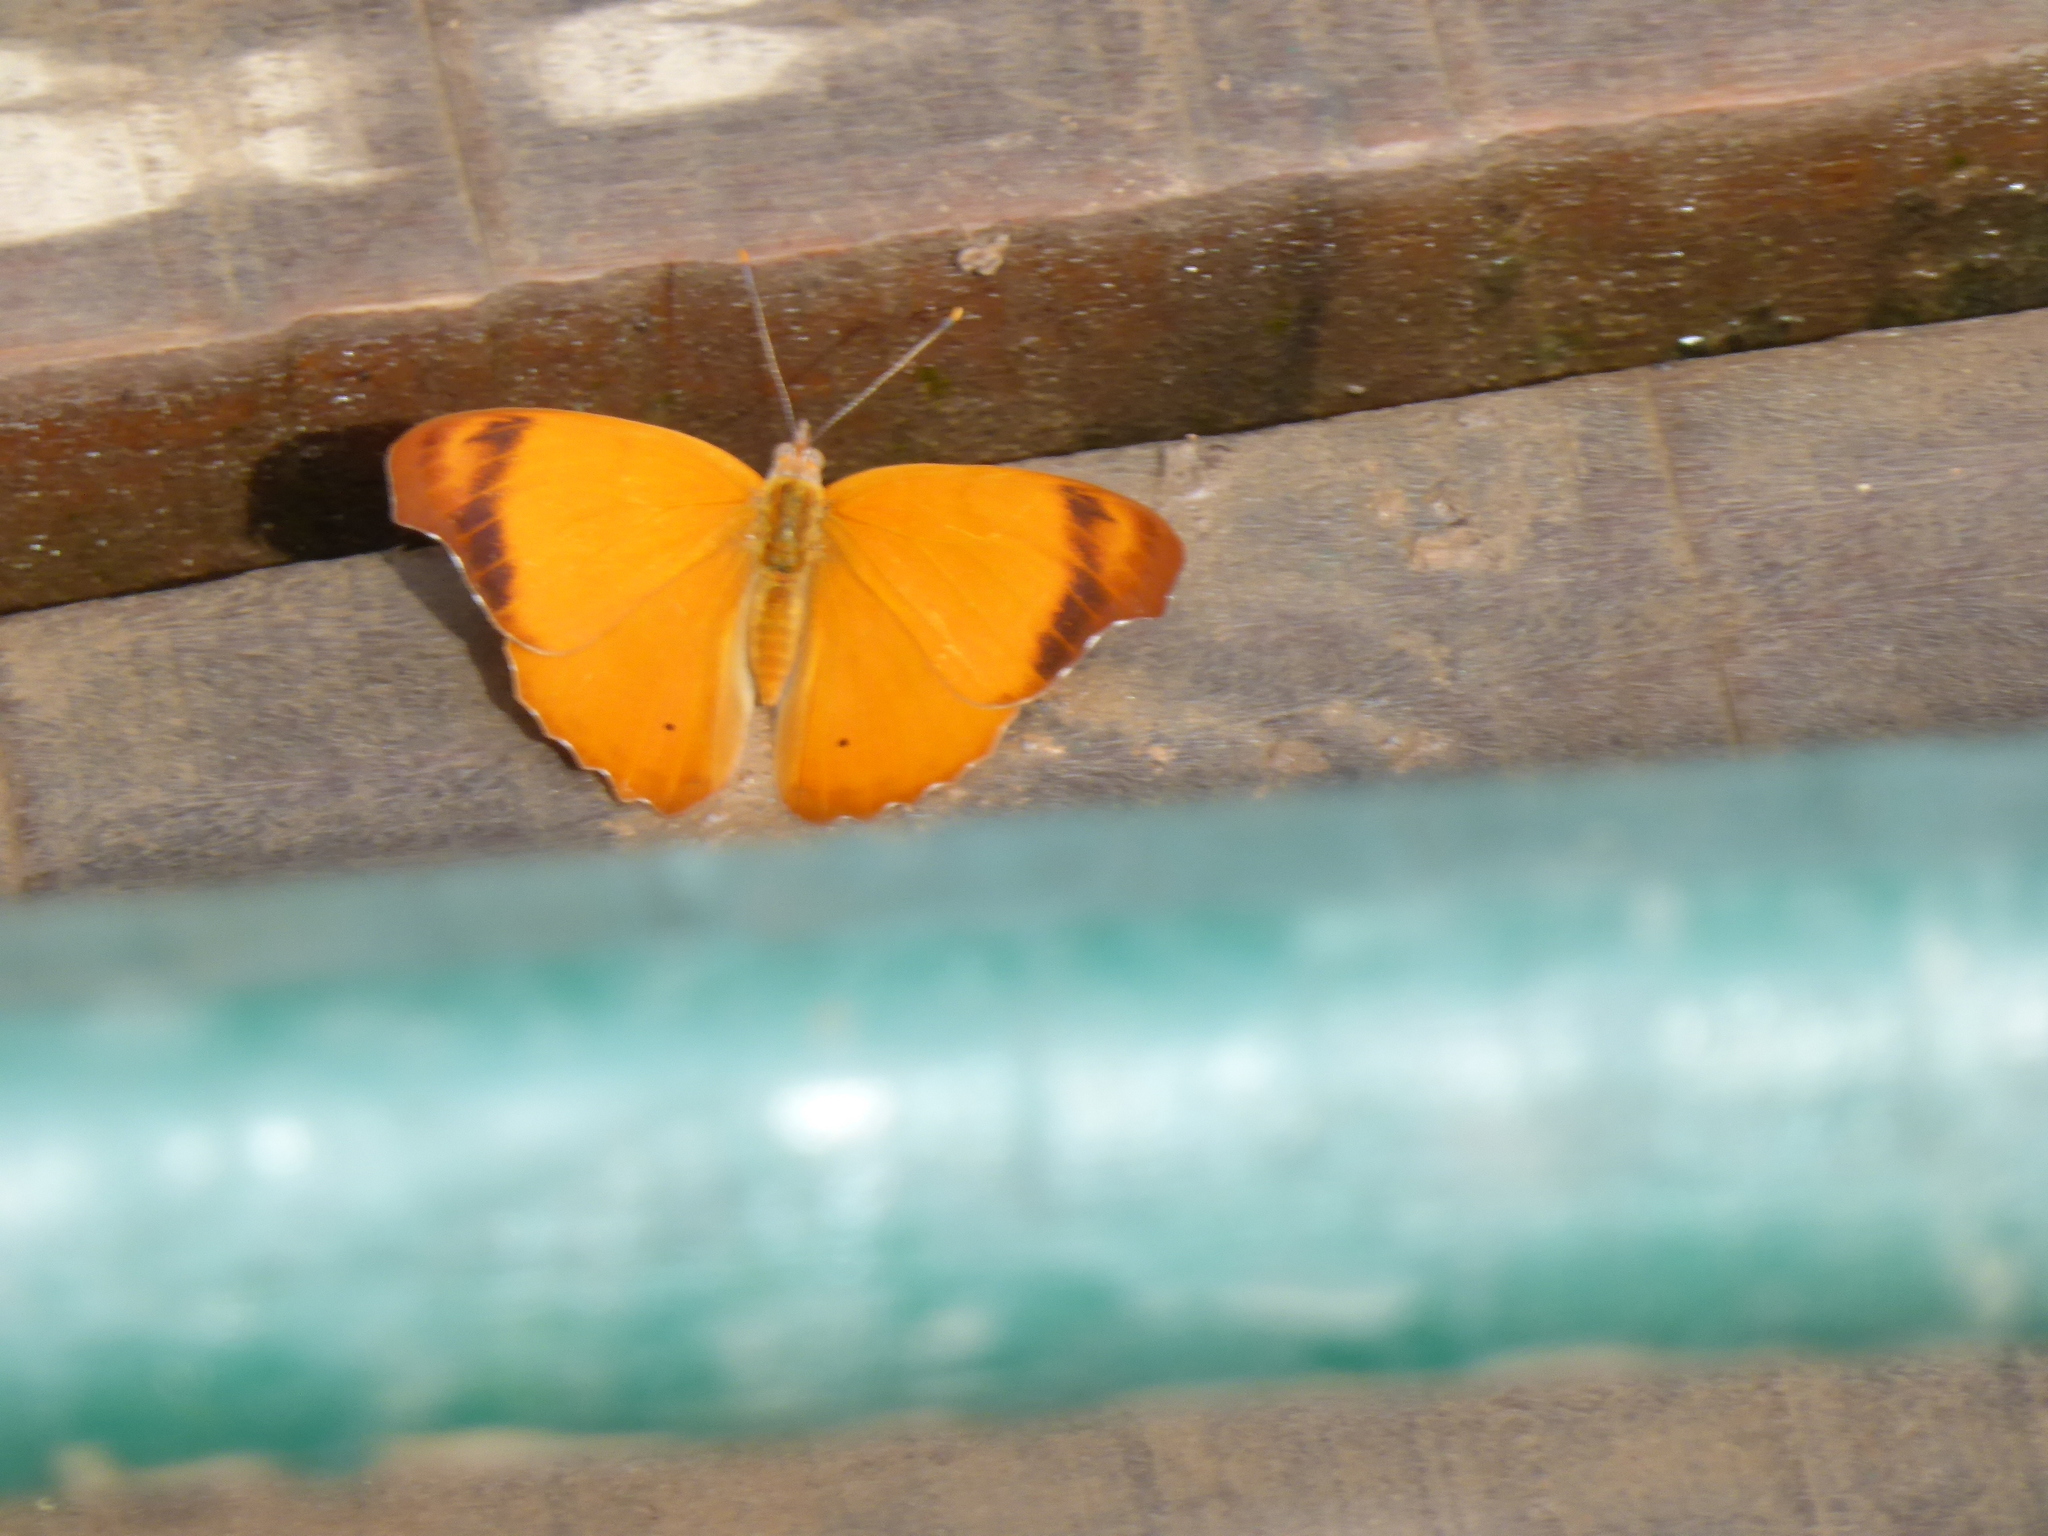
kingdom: Animalia
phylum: Arthropoda
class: Insecta
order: Lepidoptera
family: Nymphalidae
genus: Temenis
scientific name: Temenis laothoe
